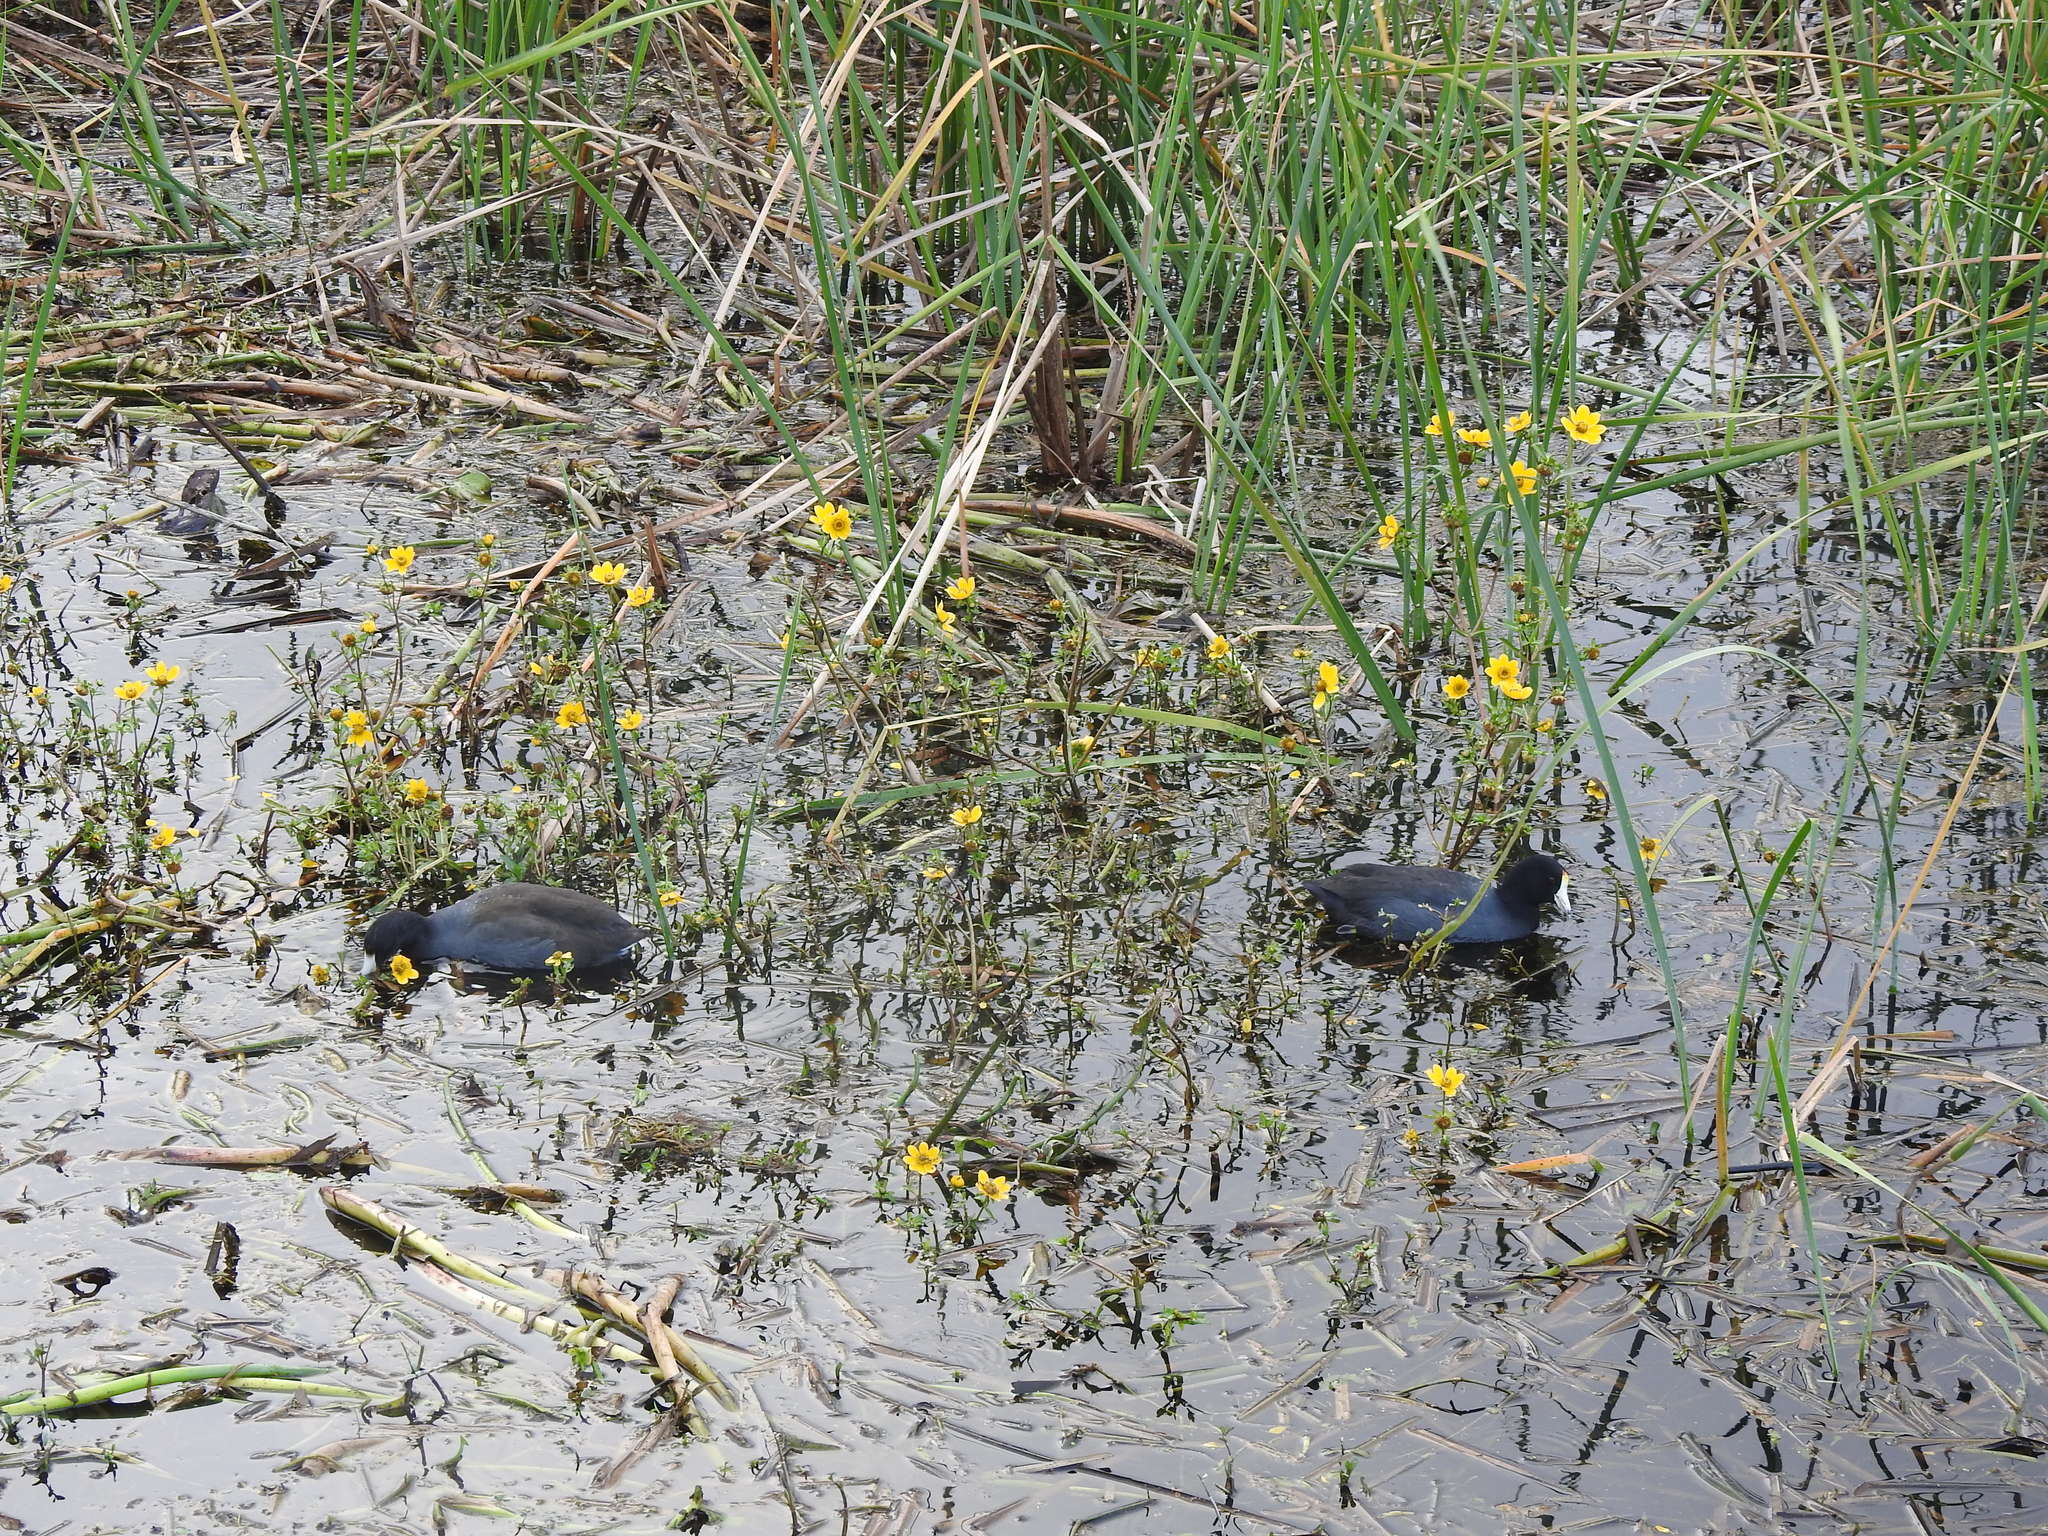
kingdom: Animalia
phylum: Chordata
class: Aves
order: Gruiformes
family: Rallidae
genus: Fulica
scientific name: Fulica americana
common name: American coot
